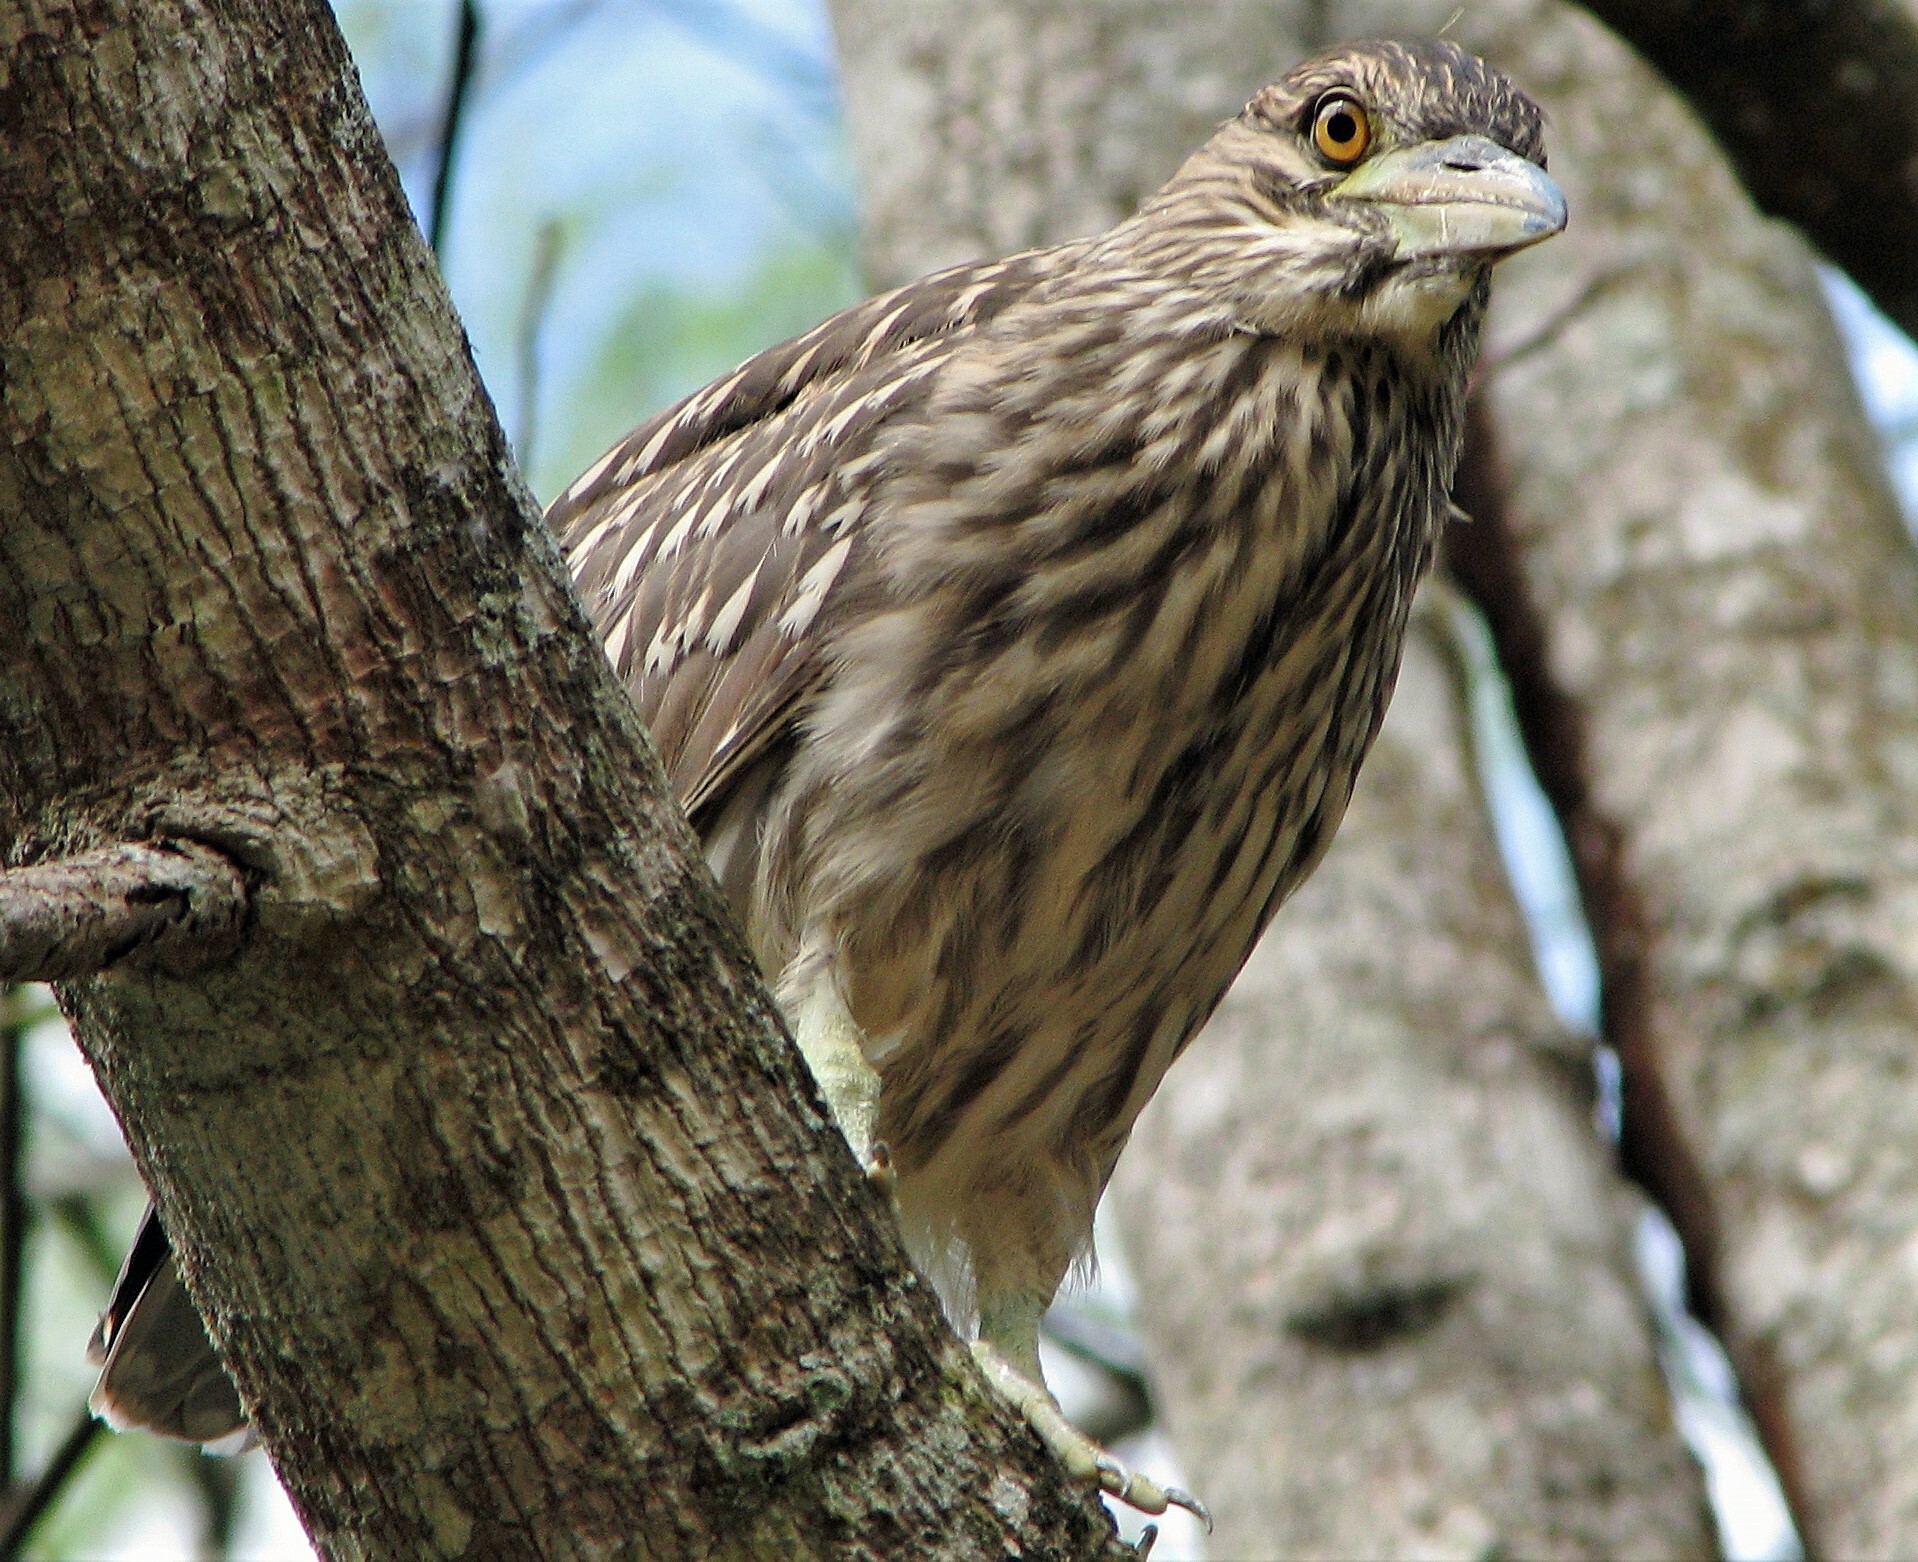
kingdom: Animalia
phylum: Chordata
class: Aves
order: Pelecaniformes
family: Ardeidae
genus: Nycticorax
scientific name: Nycticorax nycticorax
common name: Black-crowned night heron
